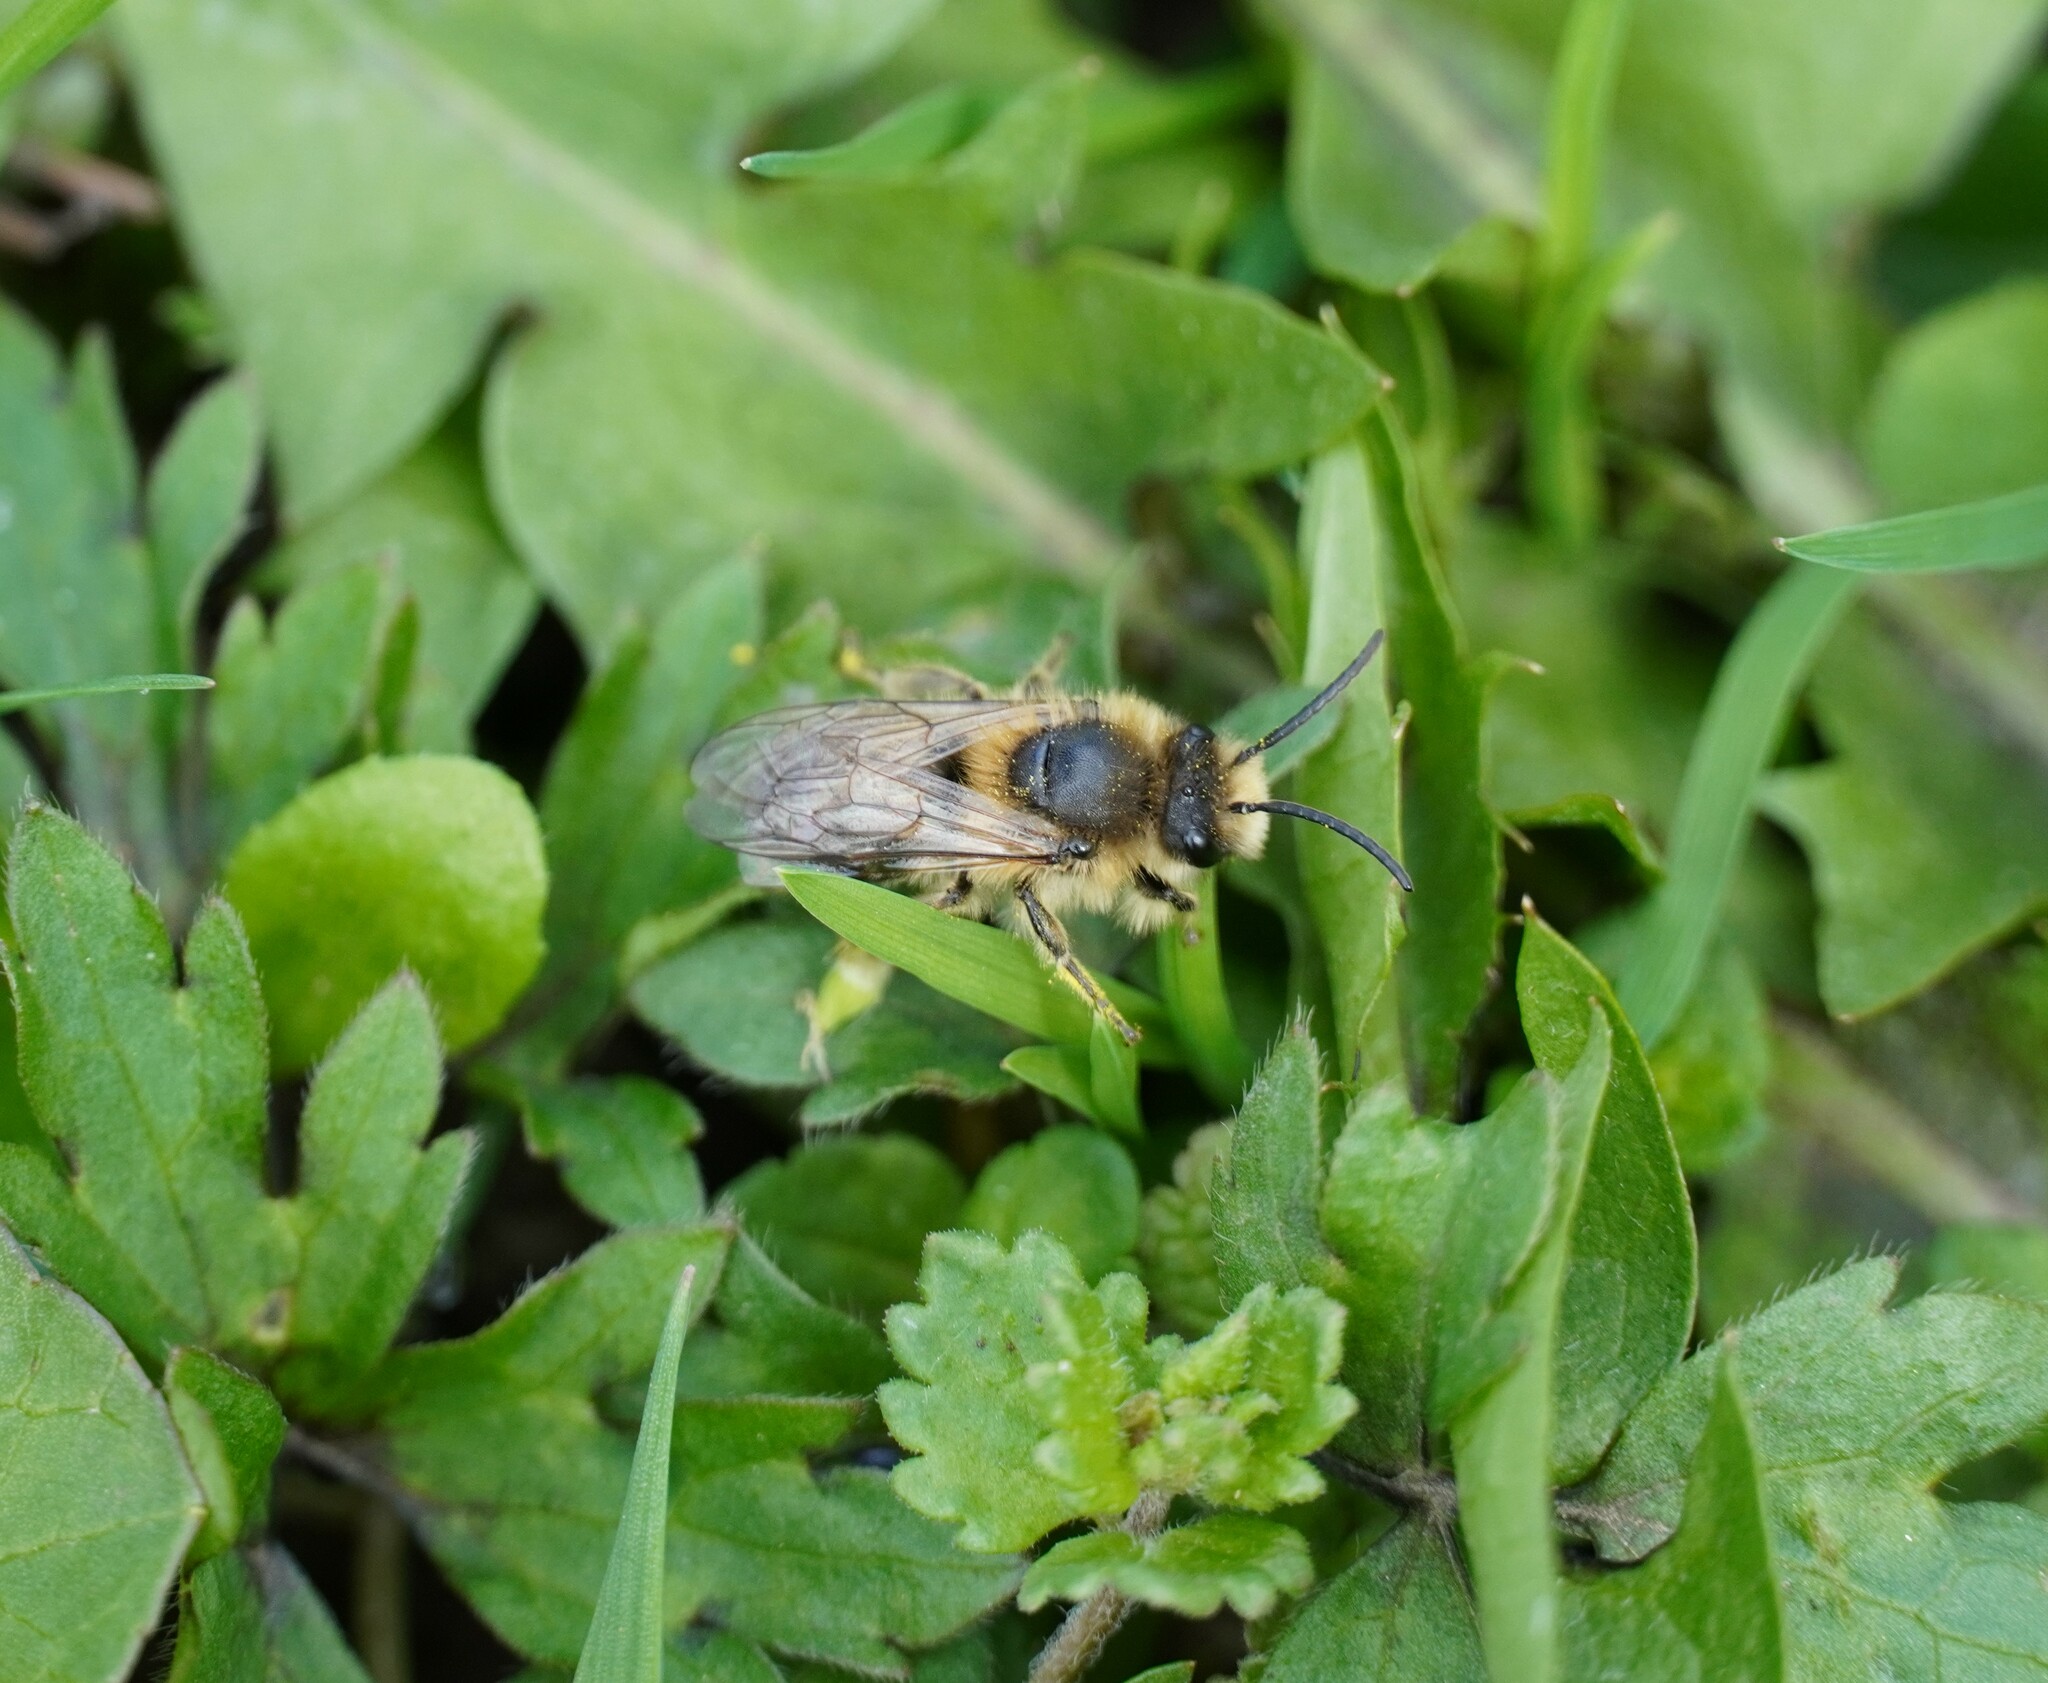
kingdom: Animalia
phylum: Arthropoda
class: Insecta
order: Hymenoptera
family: Colletidae
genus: Colletes
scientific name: Colletes cunicularius
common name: Early colletes
